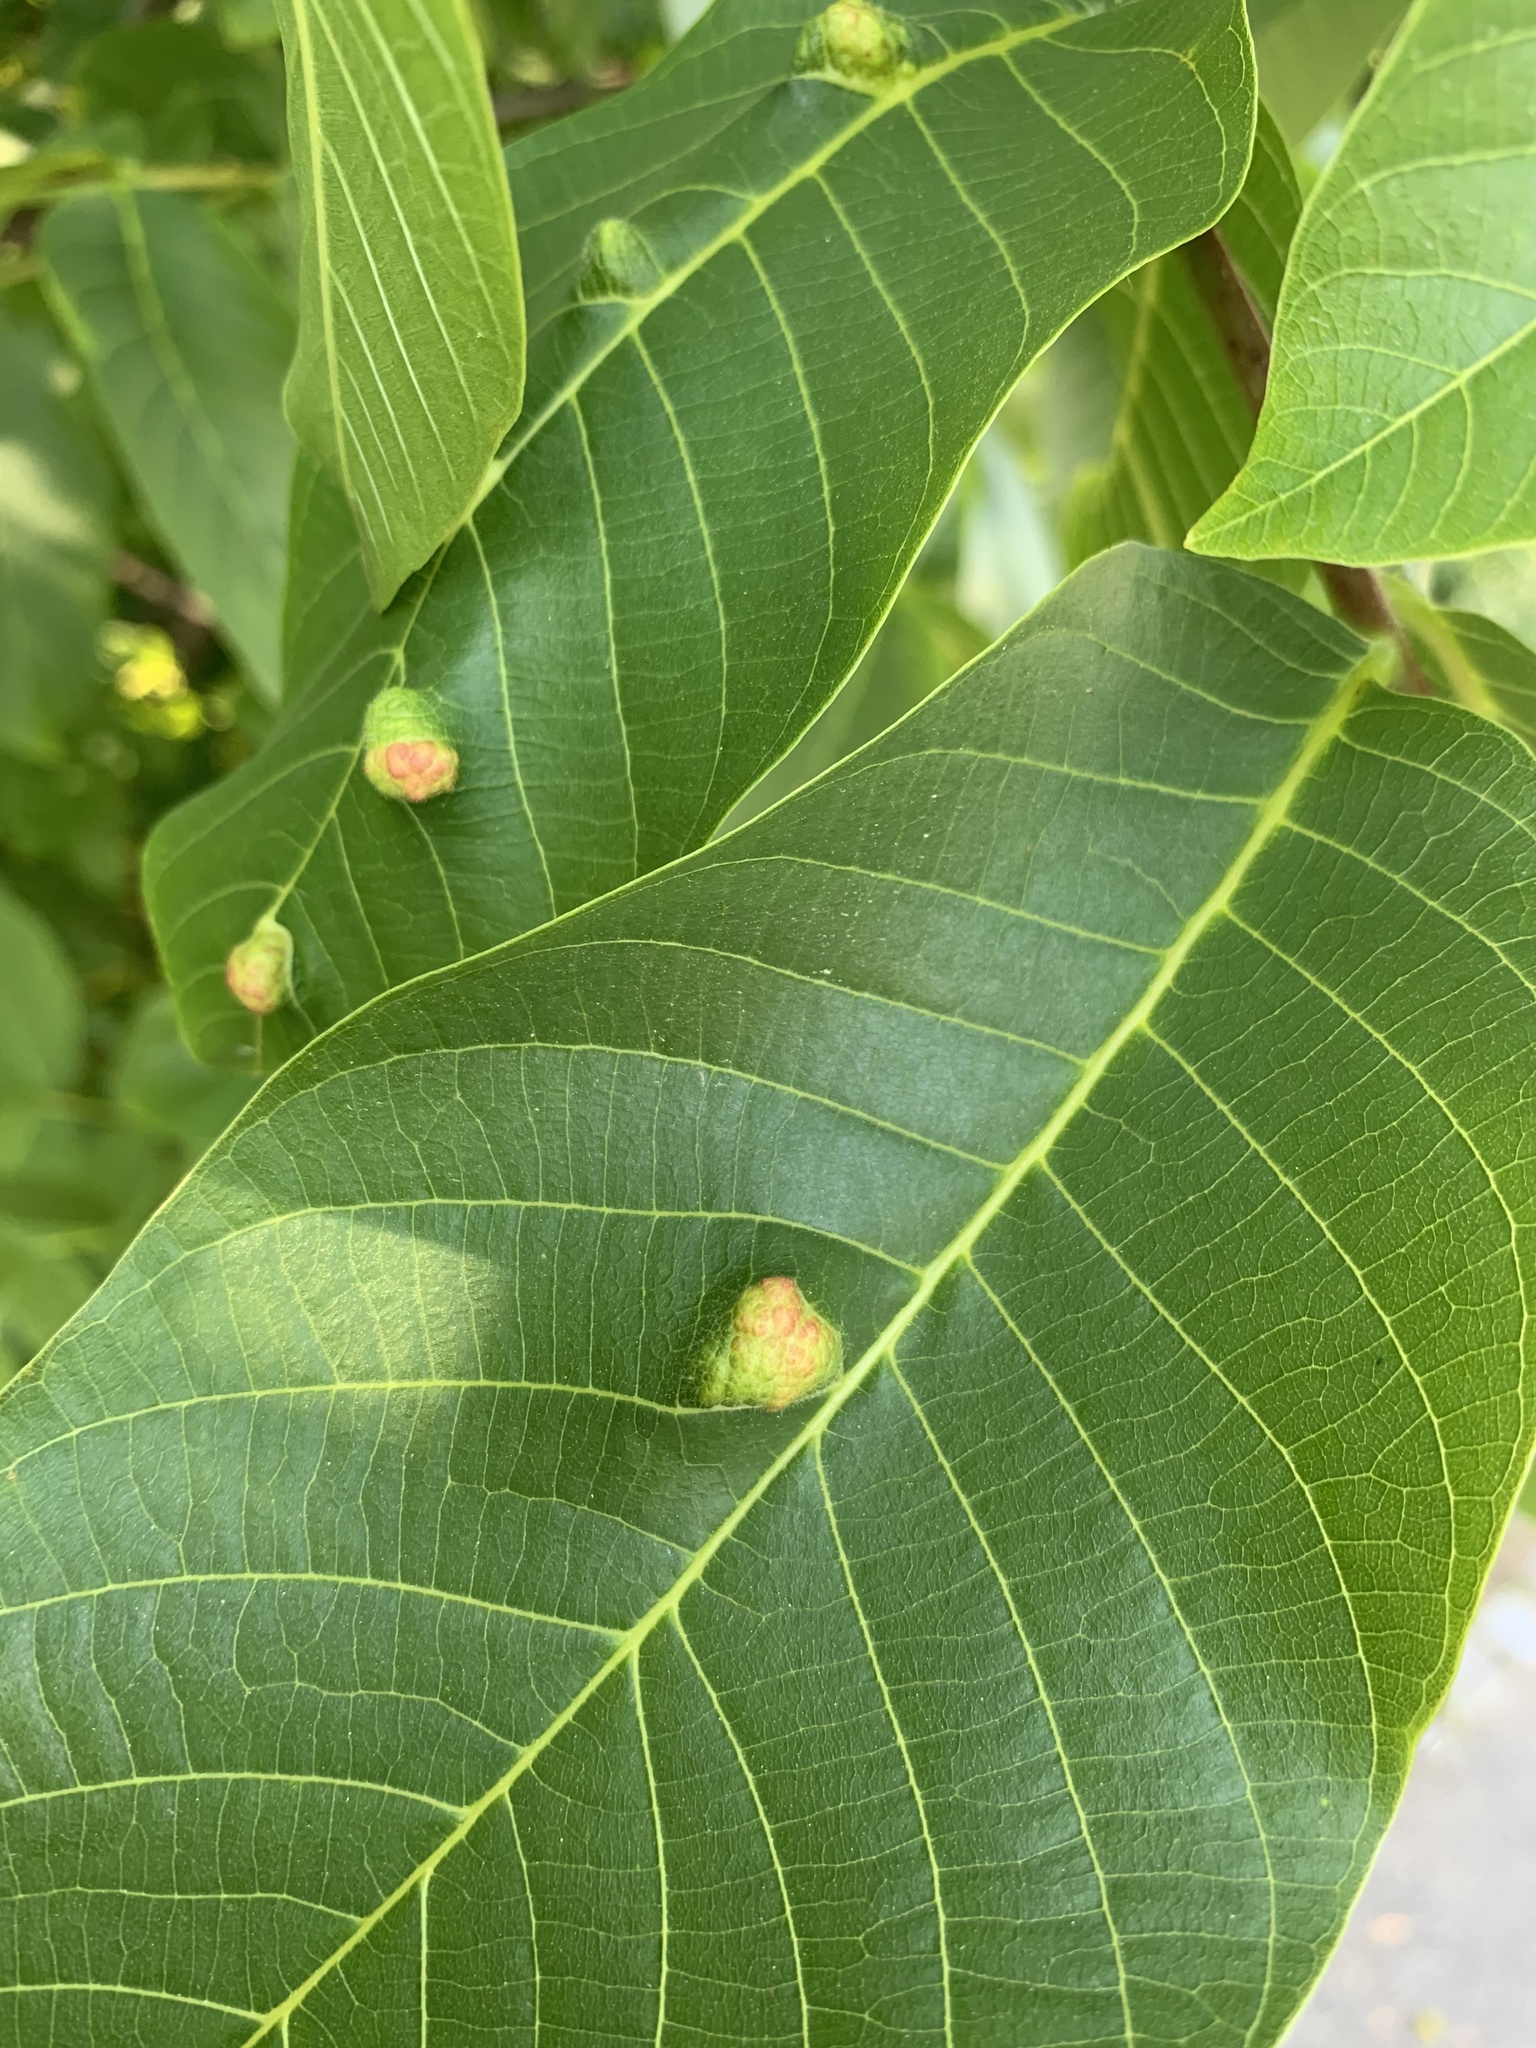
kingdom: Animalia
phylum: Arthropoda
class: Arachnida
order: Trombidiformes
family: Eriophyidae
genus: Aceria
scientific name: Aceria erinea
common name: Persian walnut erineum mite
